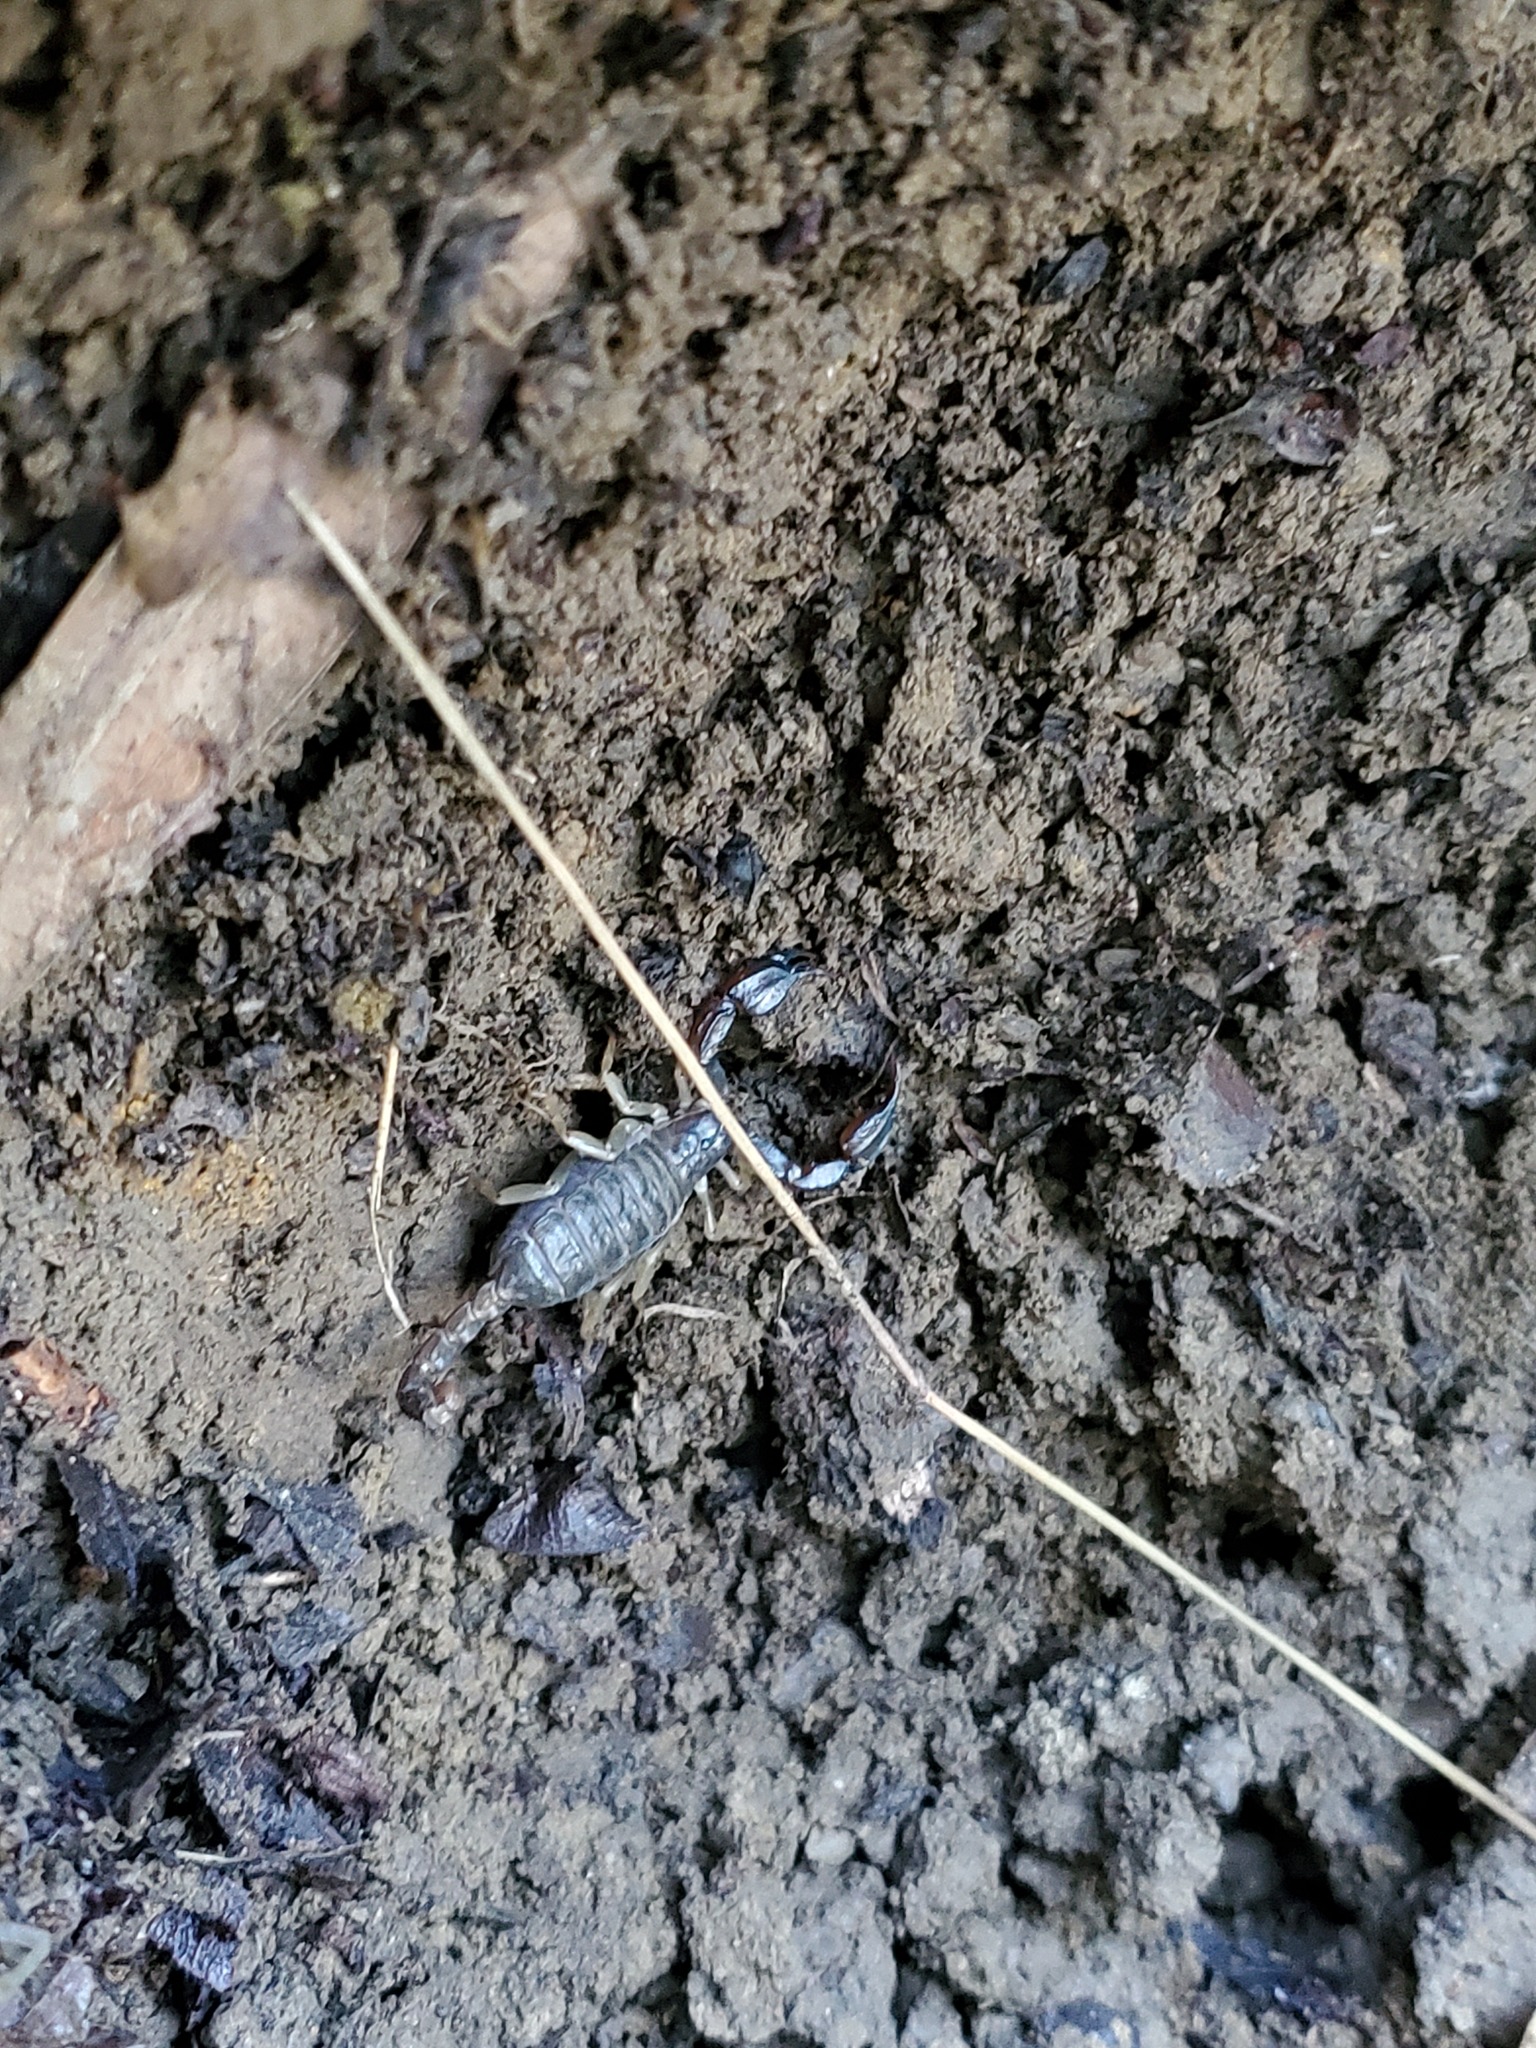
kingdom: Animalia
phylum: Arthropoda
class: Arachnida
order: Scorpiones
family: Chactidae
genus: Uroctonus
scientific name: Uroctonus mordax
